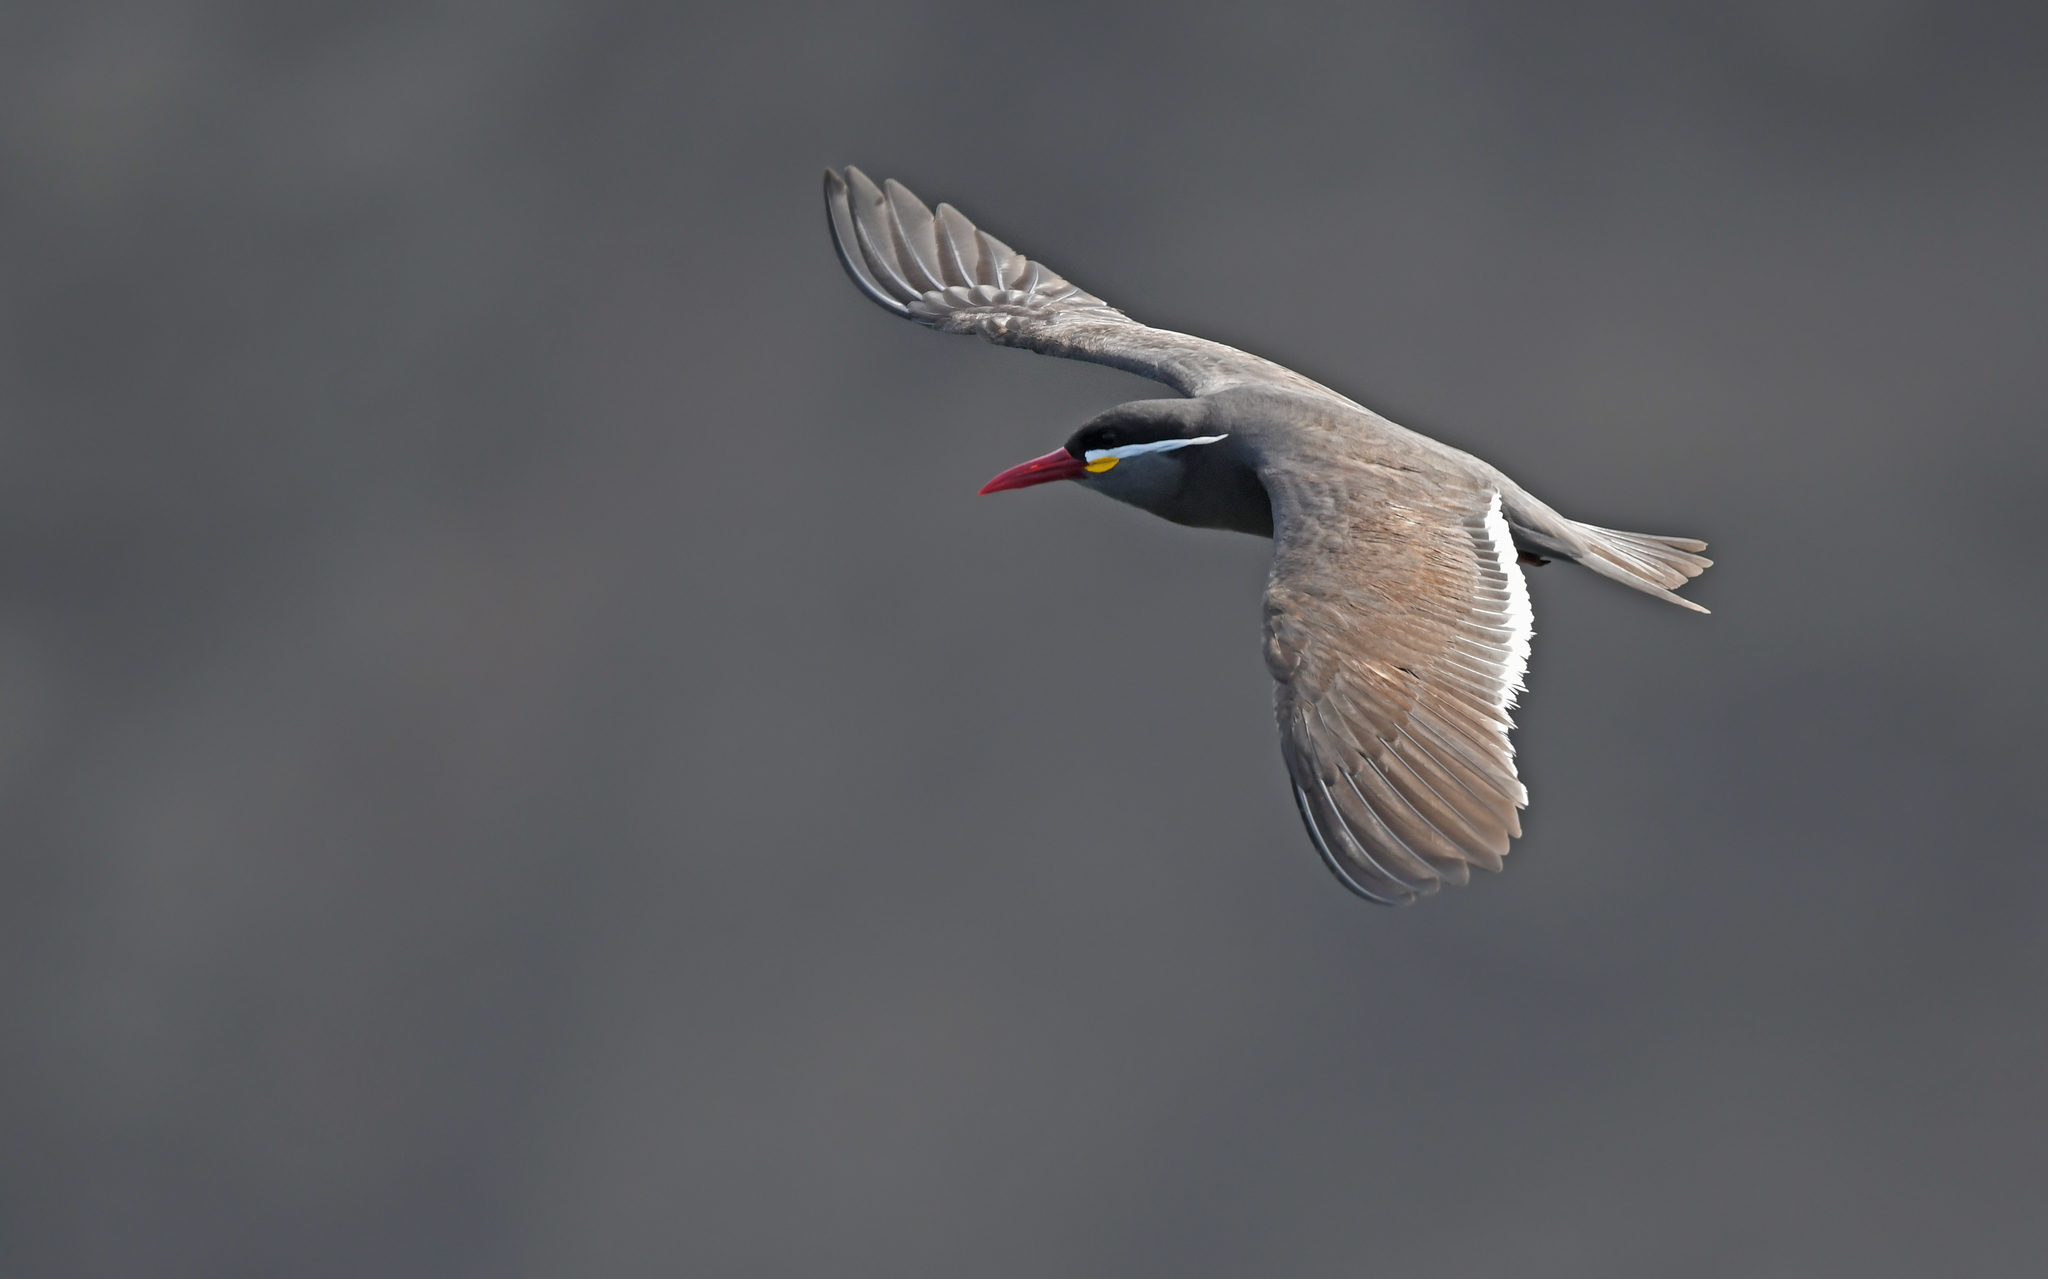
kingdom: Animalia
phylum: Chordata
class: Aves
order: Charadriiformes
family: Laridae
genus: Larosterna
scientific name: Larosterna inca
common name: Inca tern
